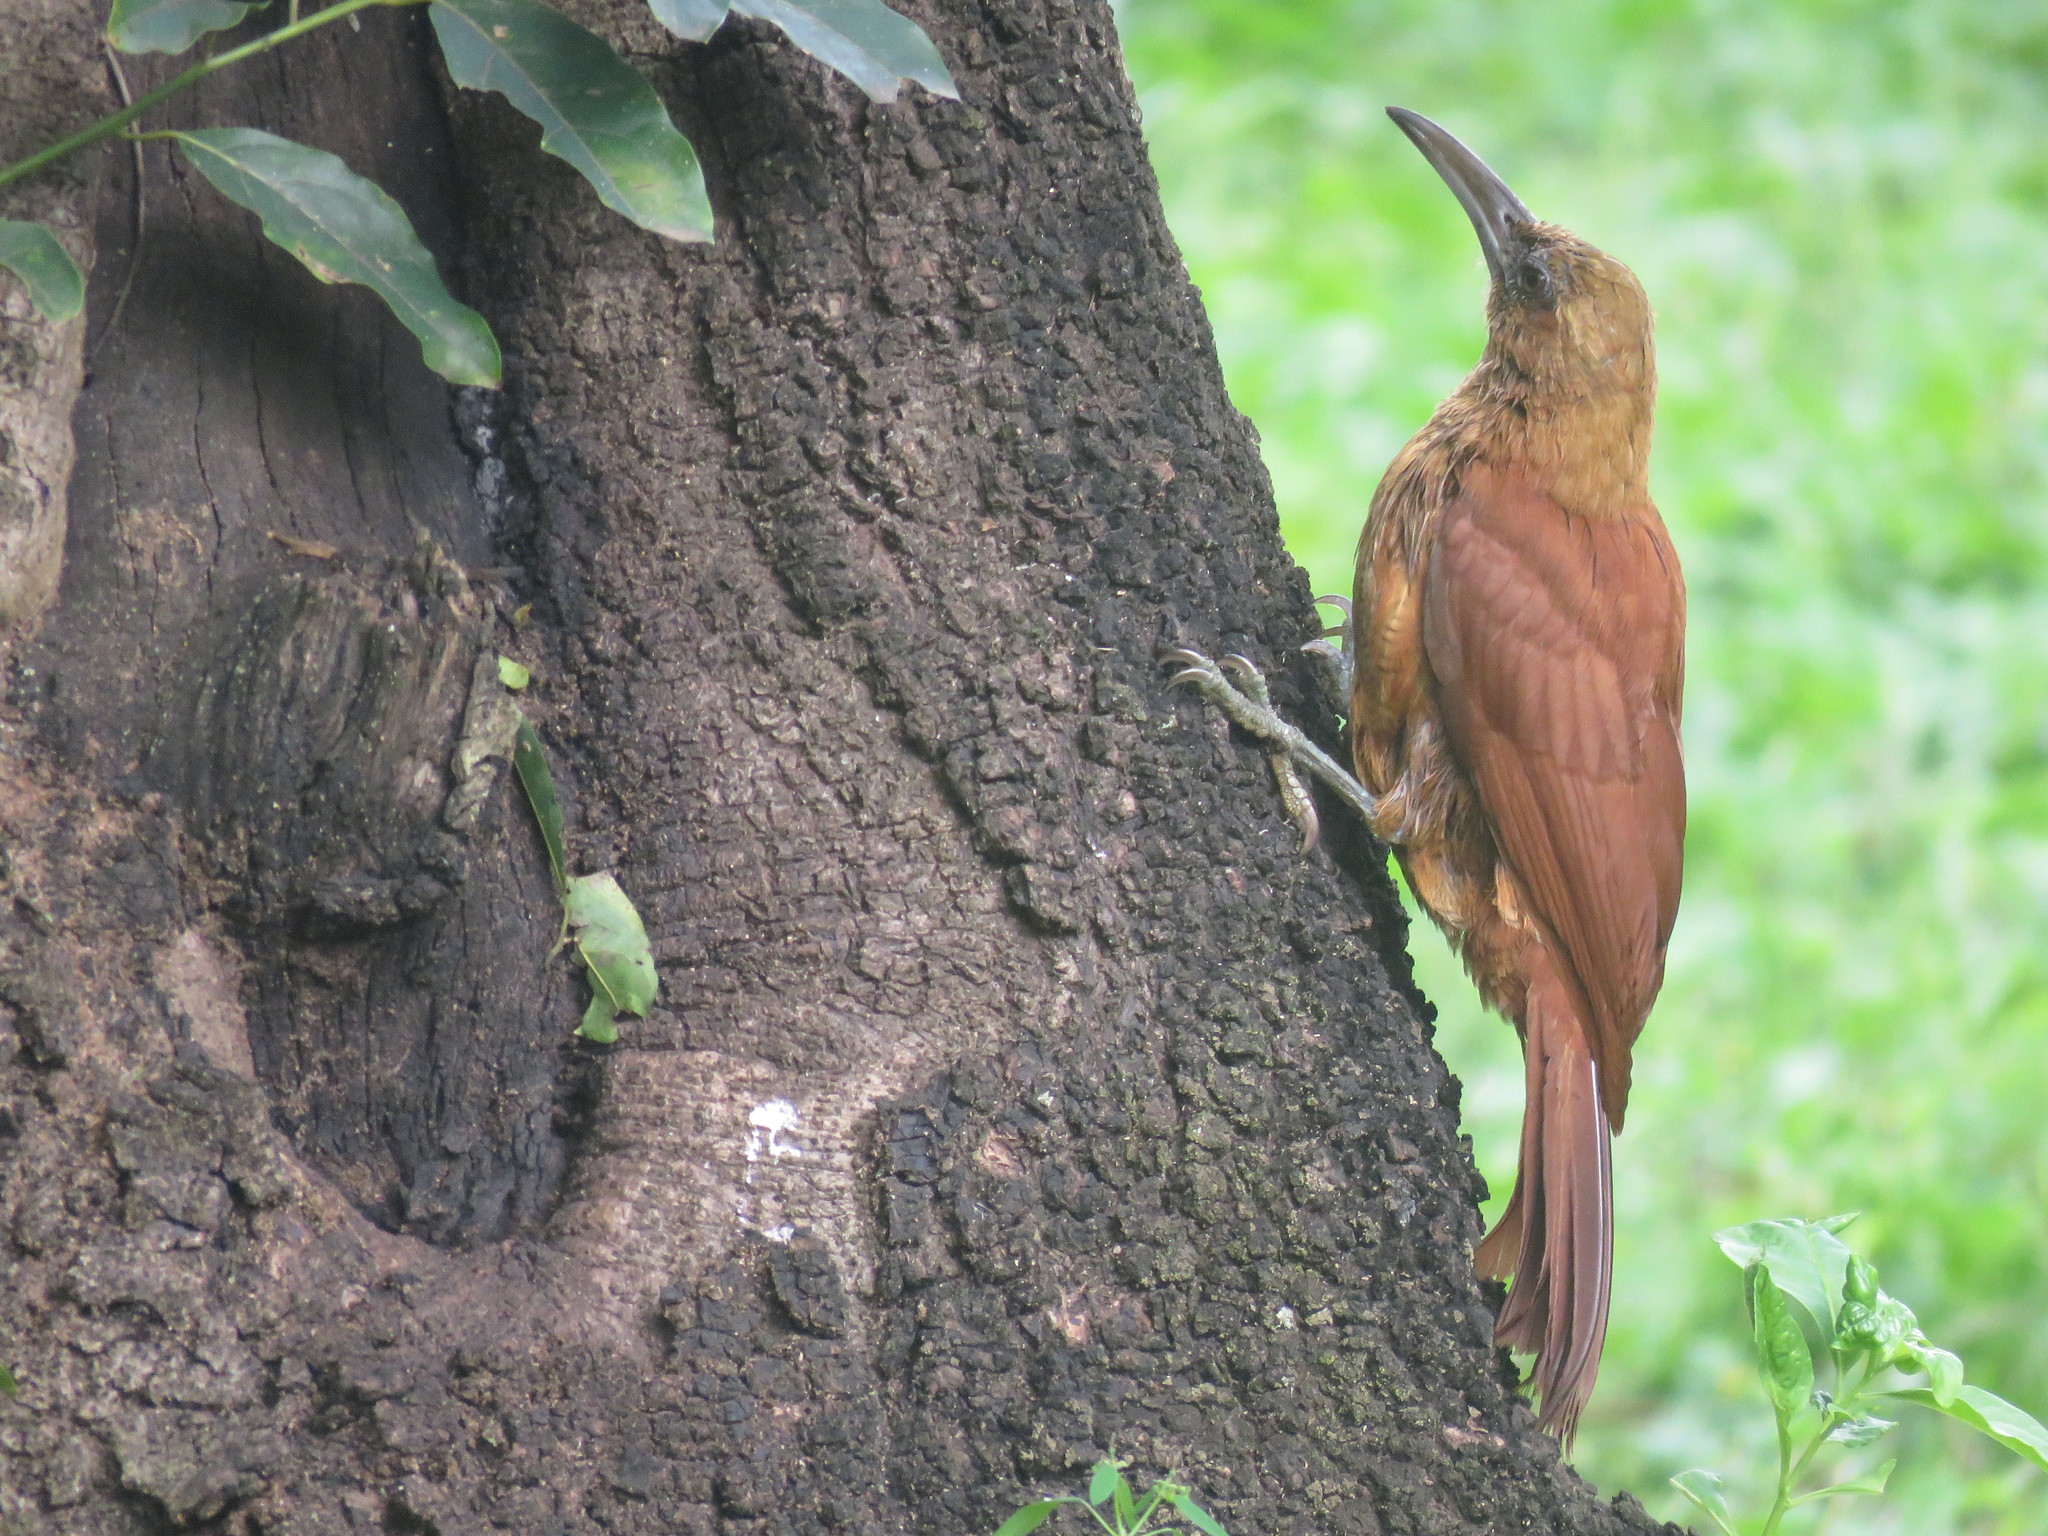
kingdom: Animalia
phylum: Chordata
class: Aves
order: Passeriformes
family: Furnariidae
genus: Xiphocolaptes
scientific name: Xiphocolaptes major
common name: Great rufous woodcreeper
